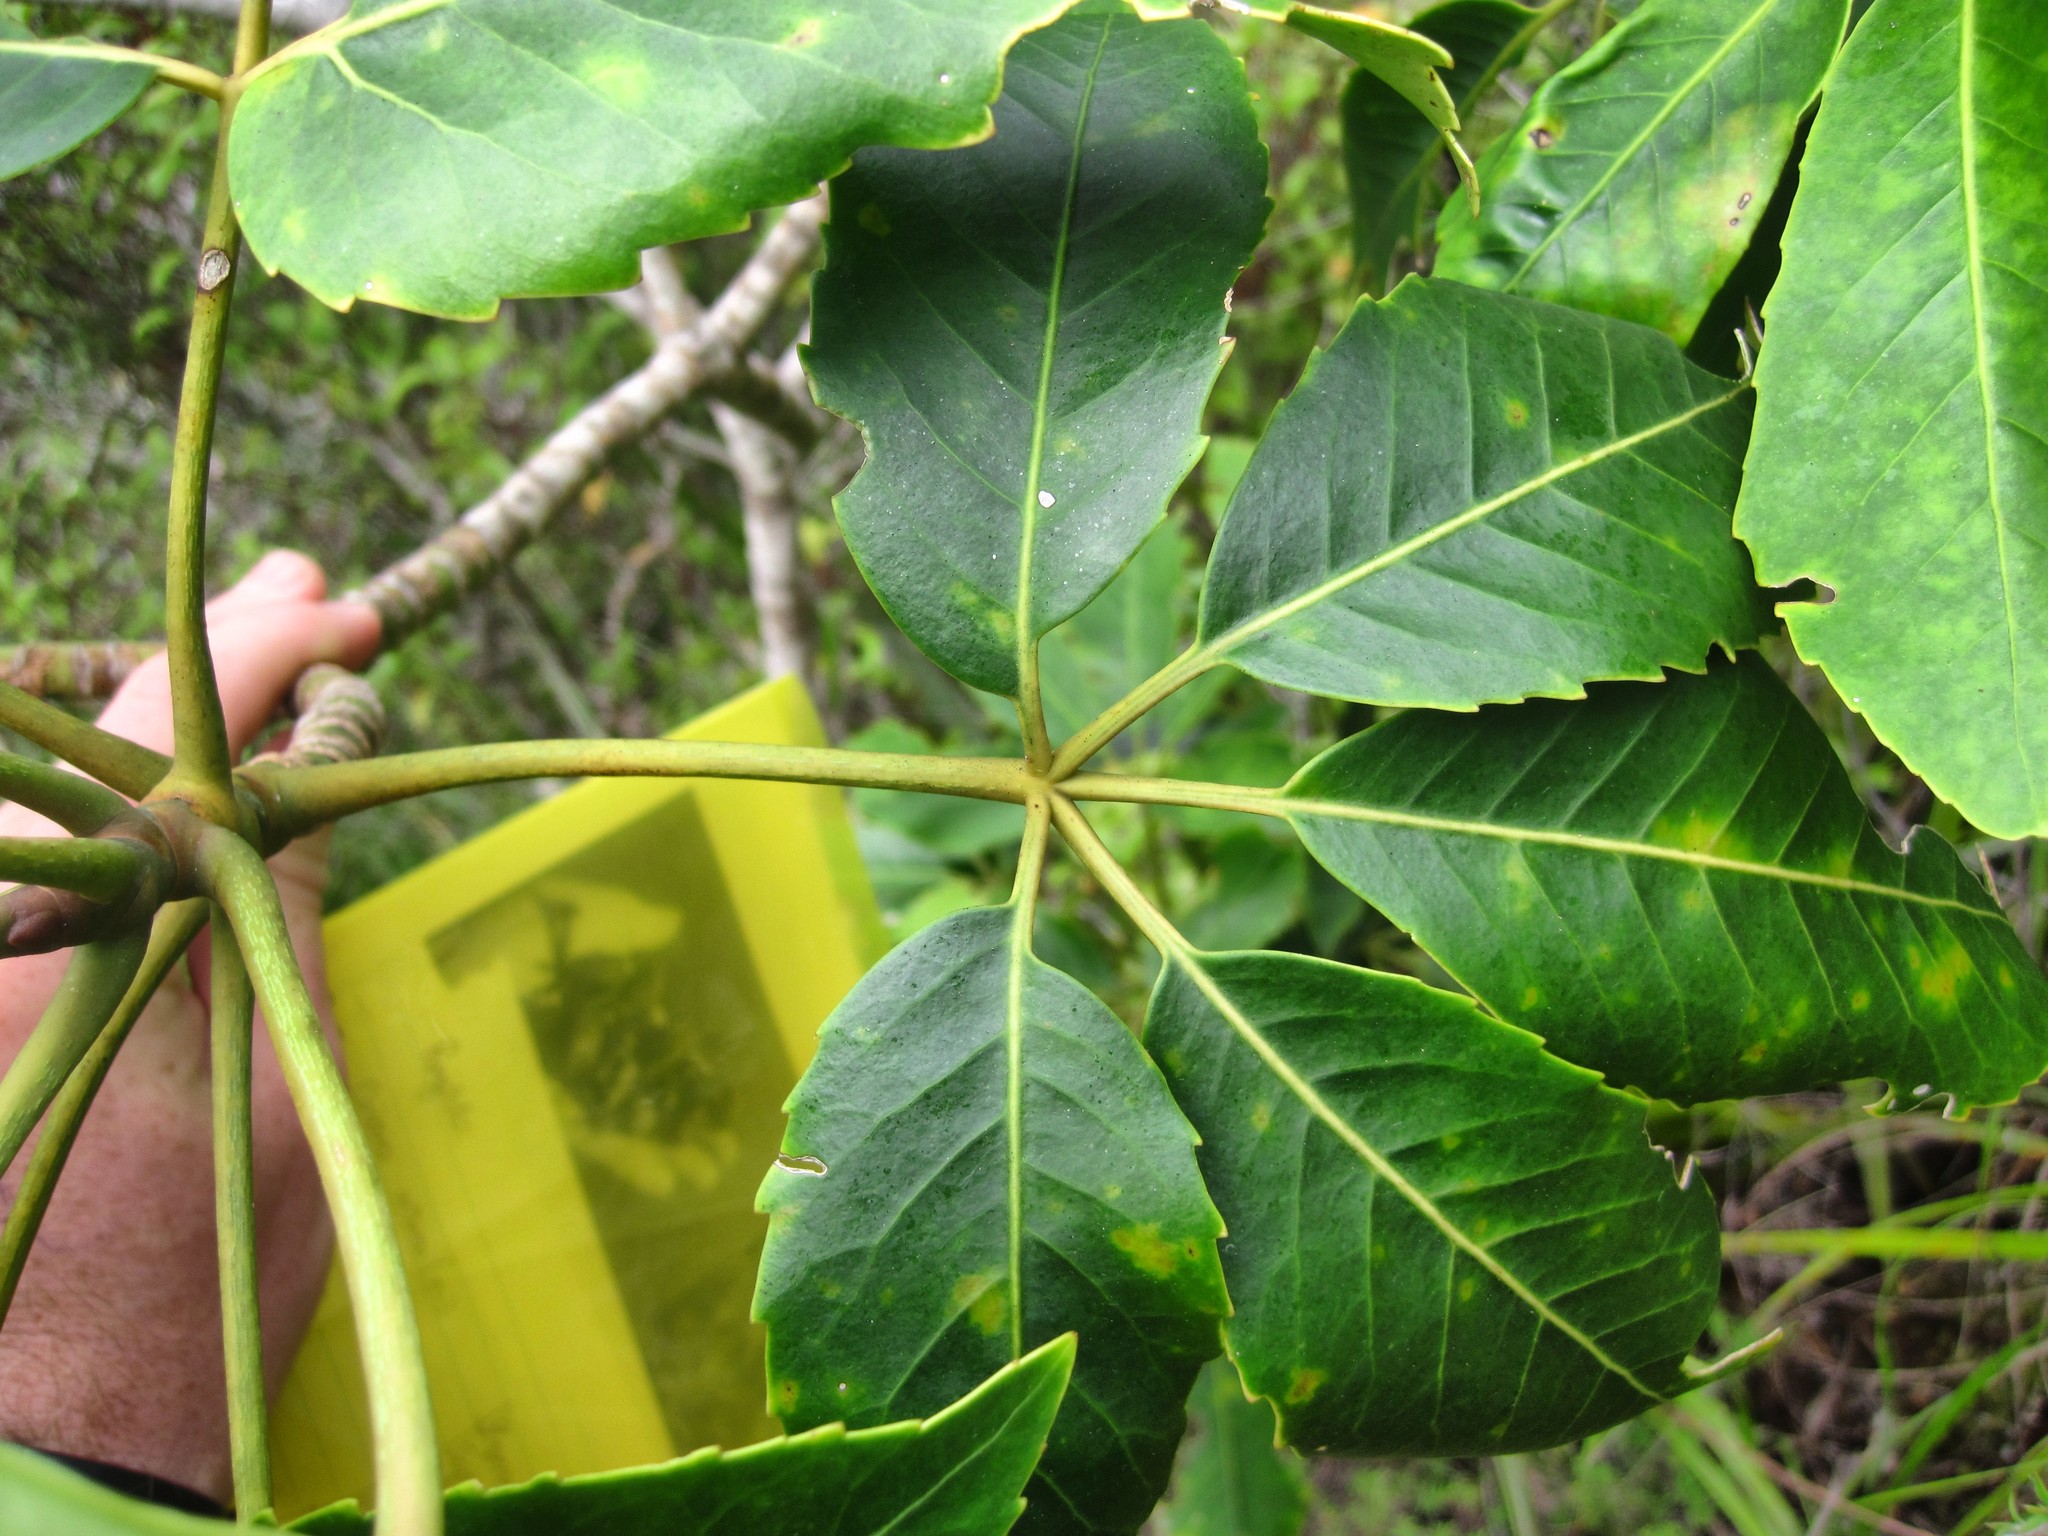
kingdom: Plantae
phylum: Tracheophyta
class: Magnoliopsida
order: Apiales
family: Araliaceae
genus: Neopanax
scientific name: Neopanax arboreus
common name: Five-fingers
